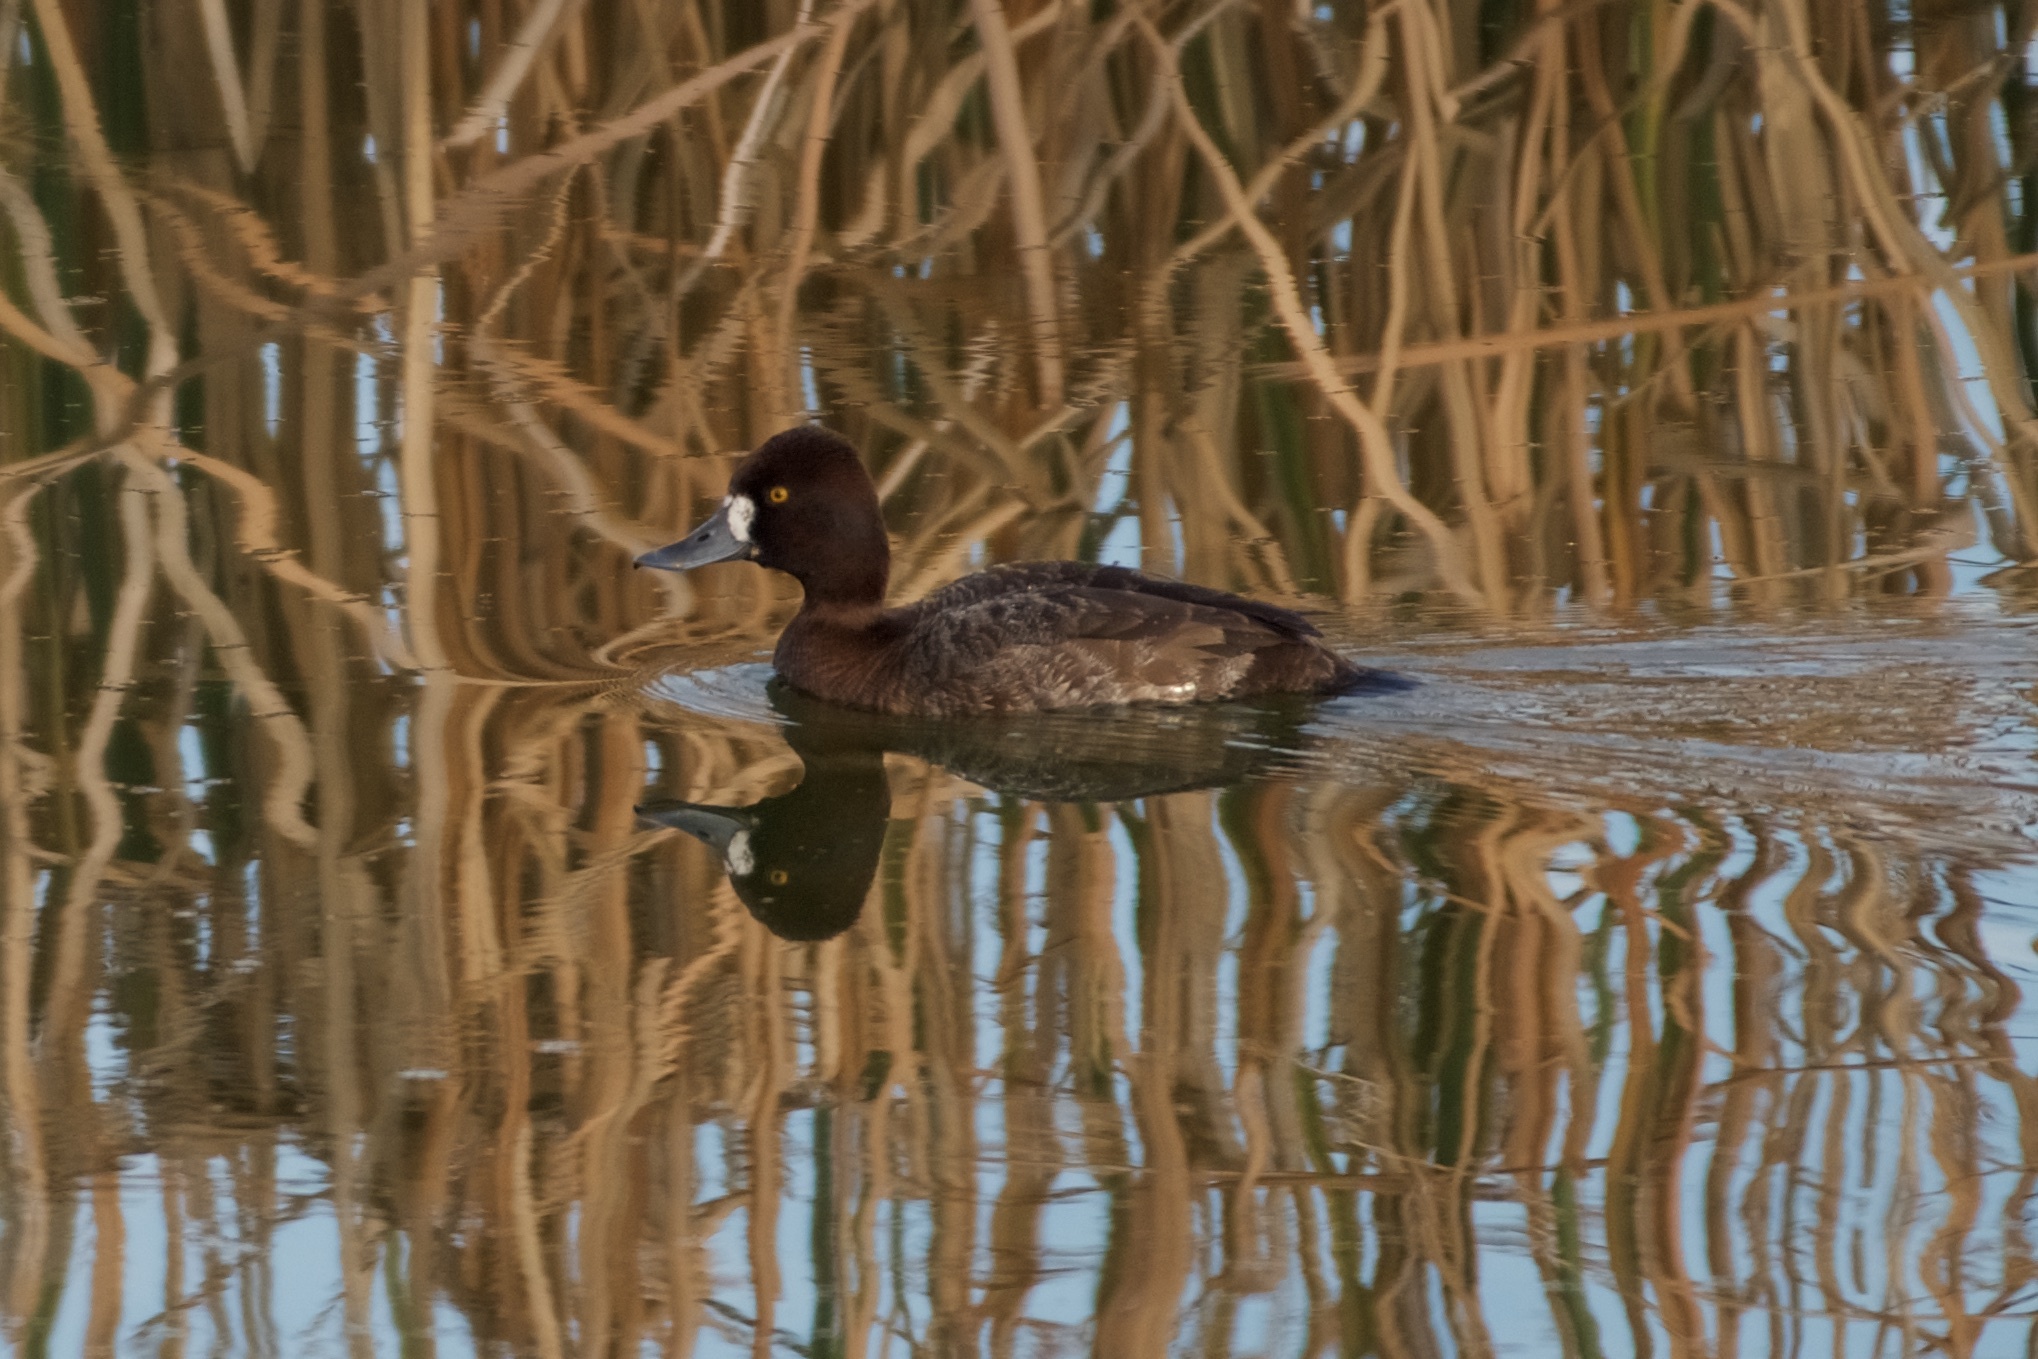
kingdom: Animalia
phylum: Chordata
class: Aves
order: Anseriformes
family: Anatidae
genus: Aythya
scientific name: Aythya affinis
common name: Lesser scaup
